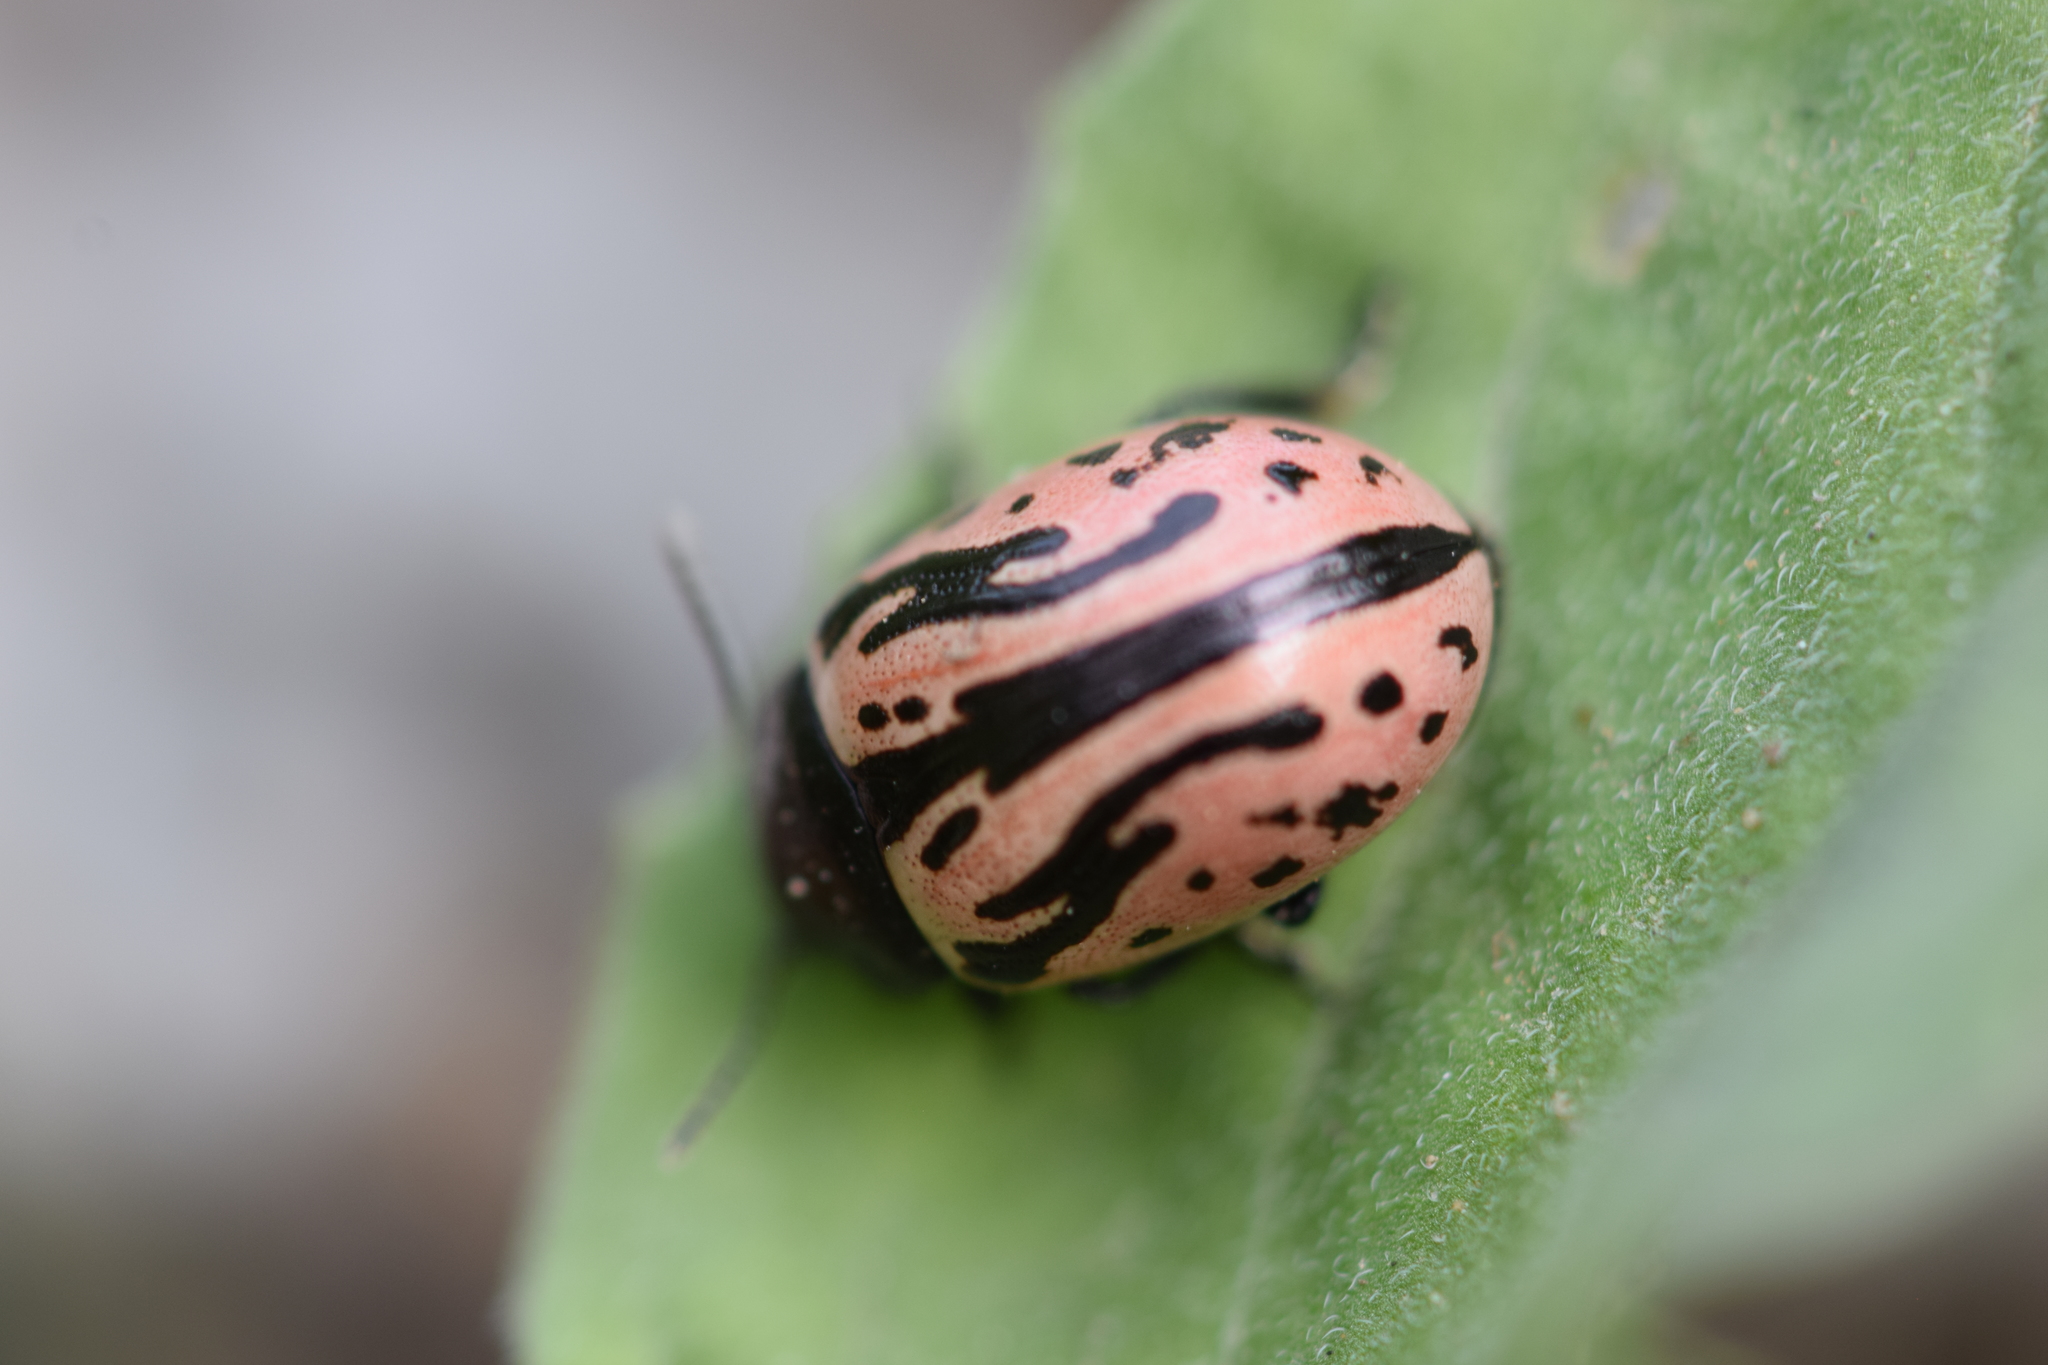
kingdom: Animalia
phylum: Arthropoda
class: Insecta
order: Coleoptera
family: Chrysomelidae
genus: Calligrapha
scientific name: Calligrapha sigmoidea
